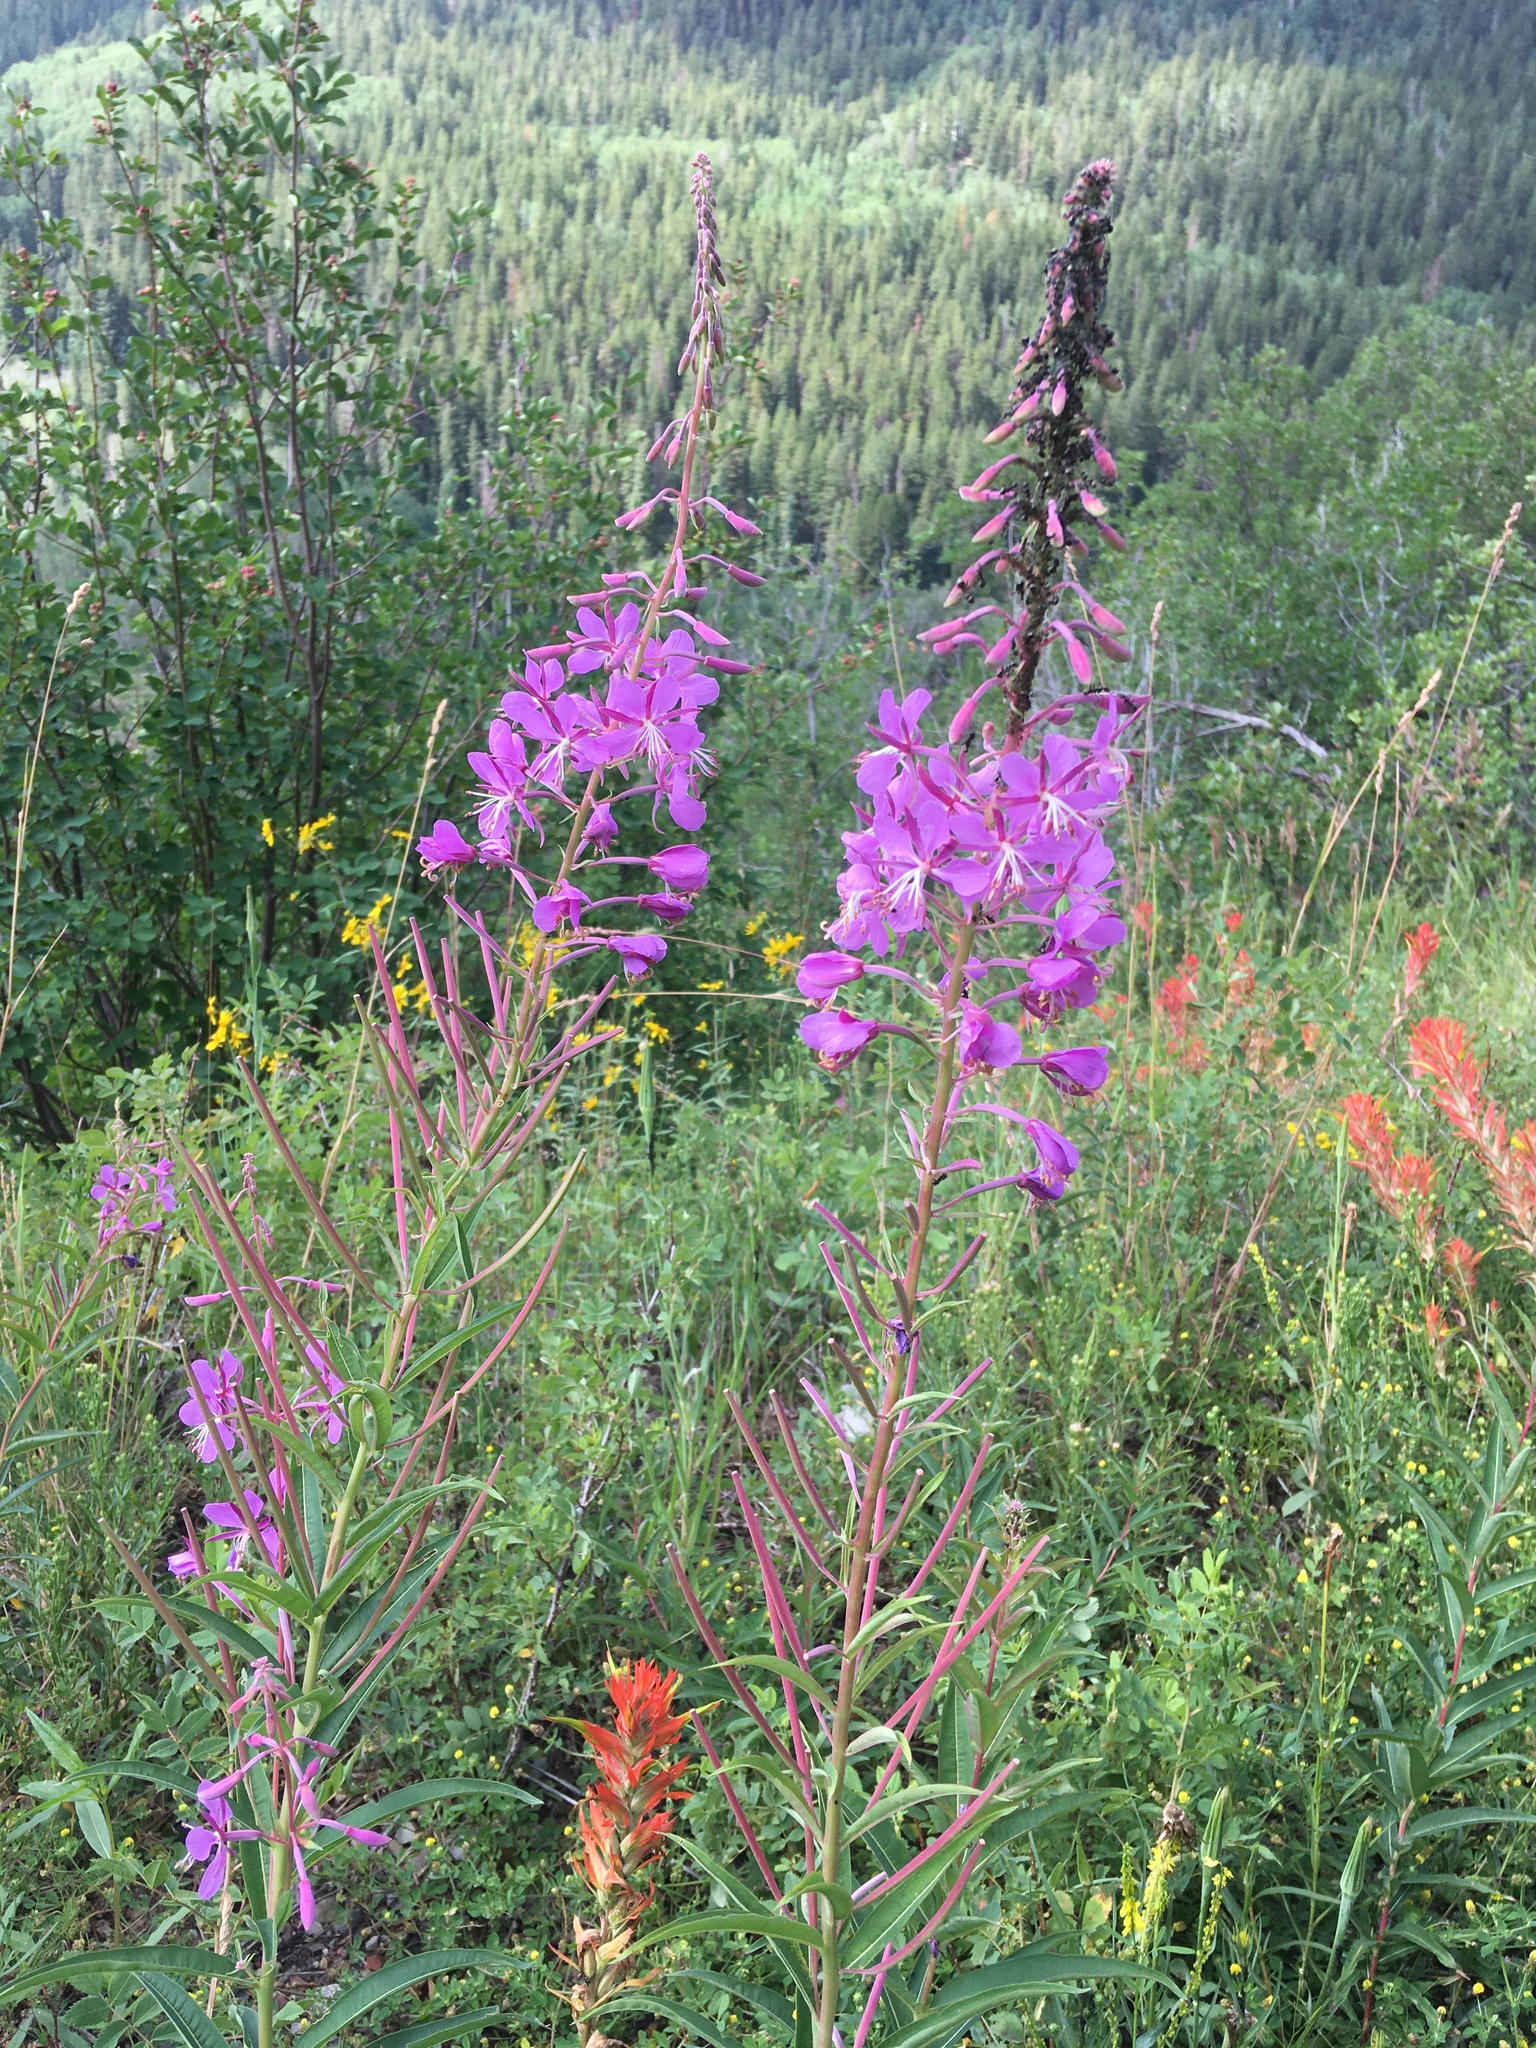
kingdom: Plantae
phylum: Tracheophyta
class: Magnoliopsida
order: Myrtales
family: Onagraceae
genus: Chamaenerion
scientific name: Chamaenerion angustifolium
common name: Fireweed
